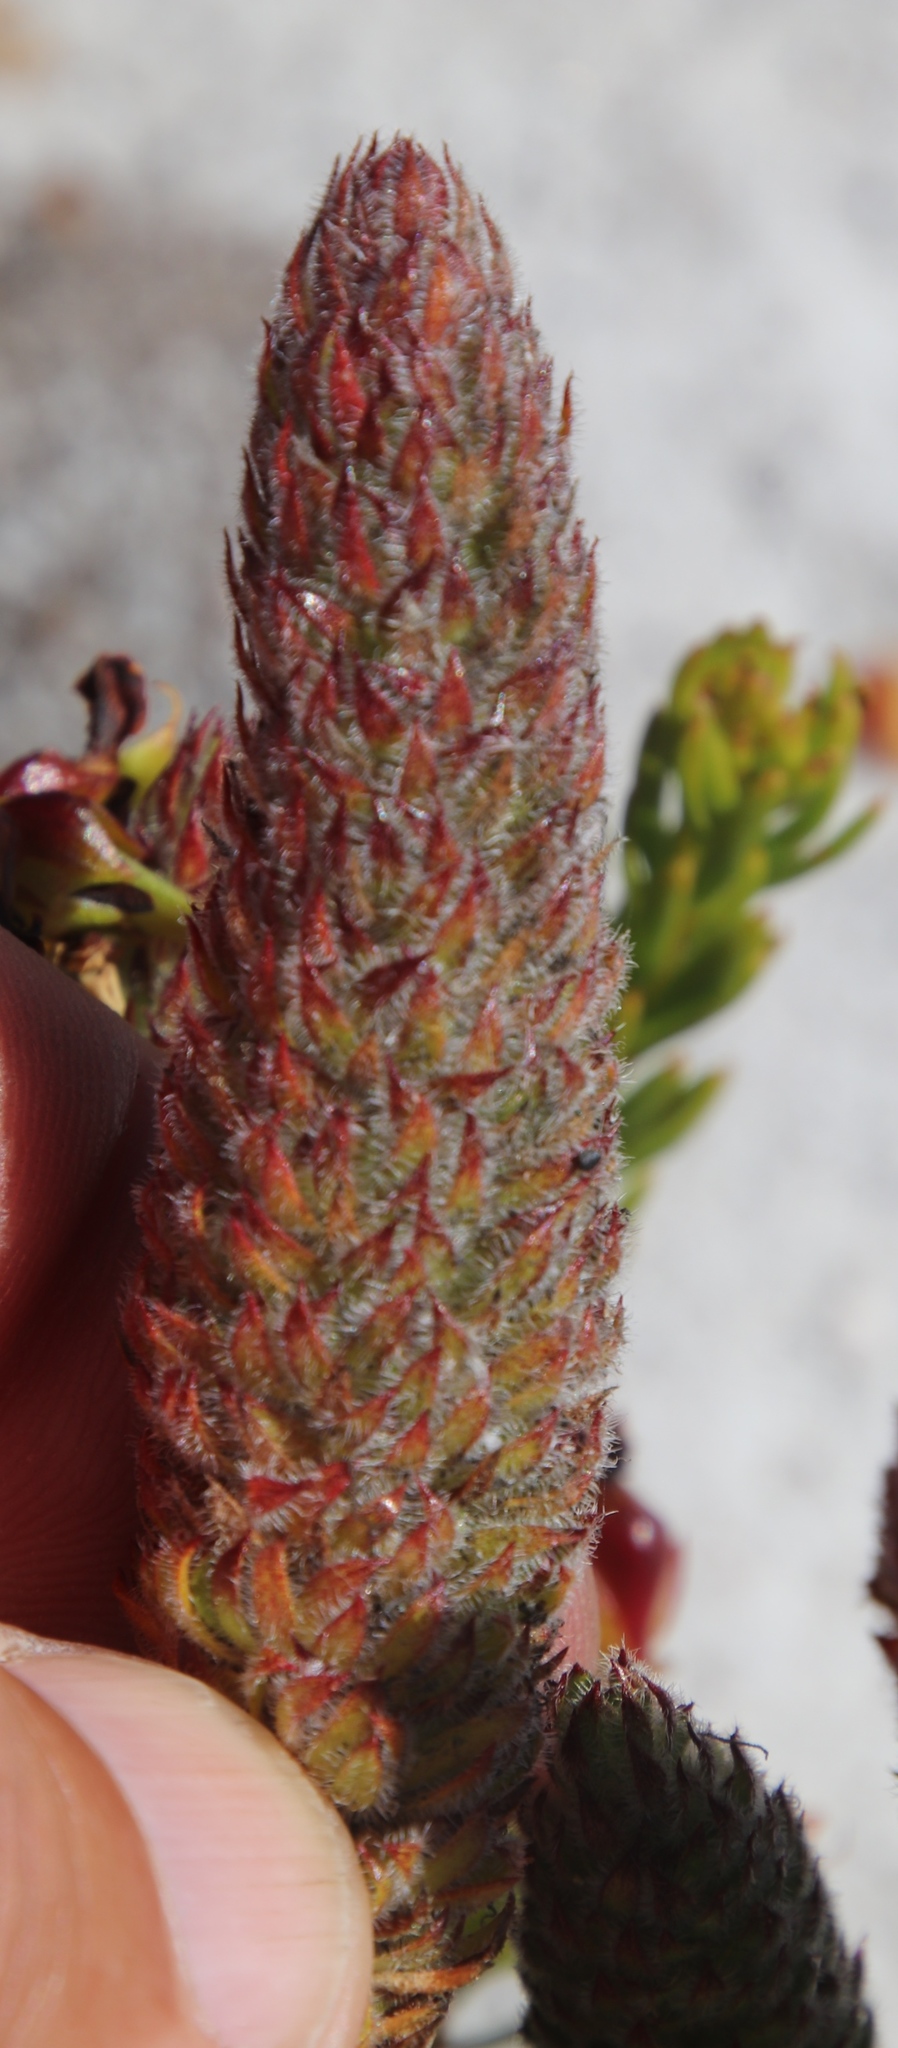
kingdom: Plantae
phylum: Tracheophyta
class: Magnoliopsida
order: Gentianales
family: Rubiaceae
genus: Anthospermum
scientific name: Anthospermum bergianum
